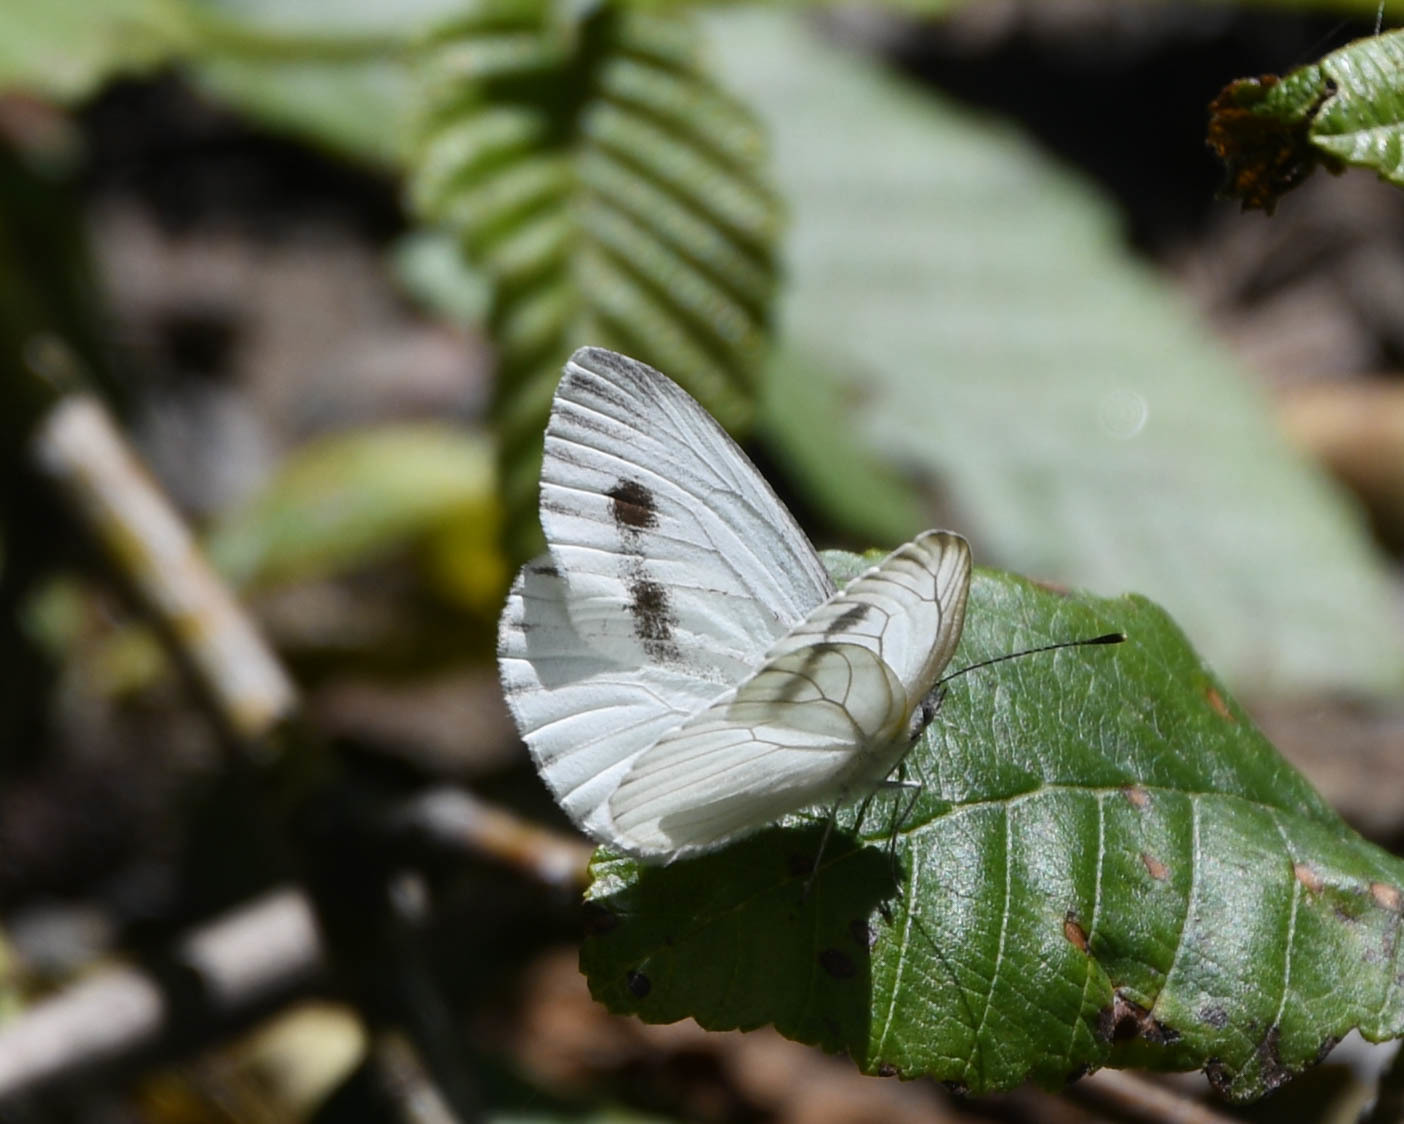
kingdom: Animalia
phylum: Arthropoda
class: Insecta
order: Lepidoptera
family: Pieridae
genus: Pieris
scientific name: Pieris rapae
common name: Small white
